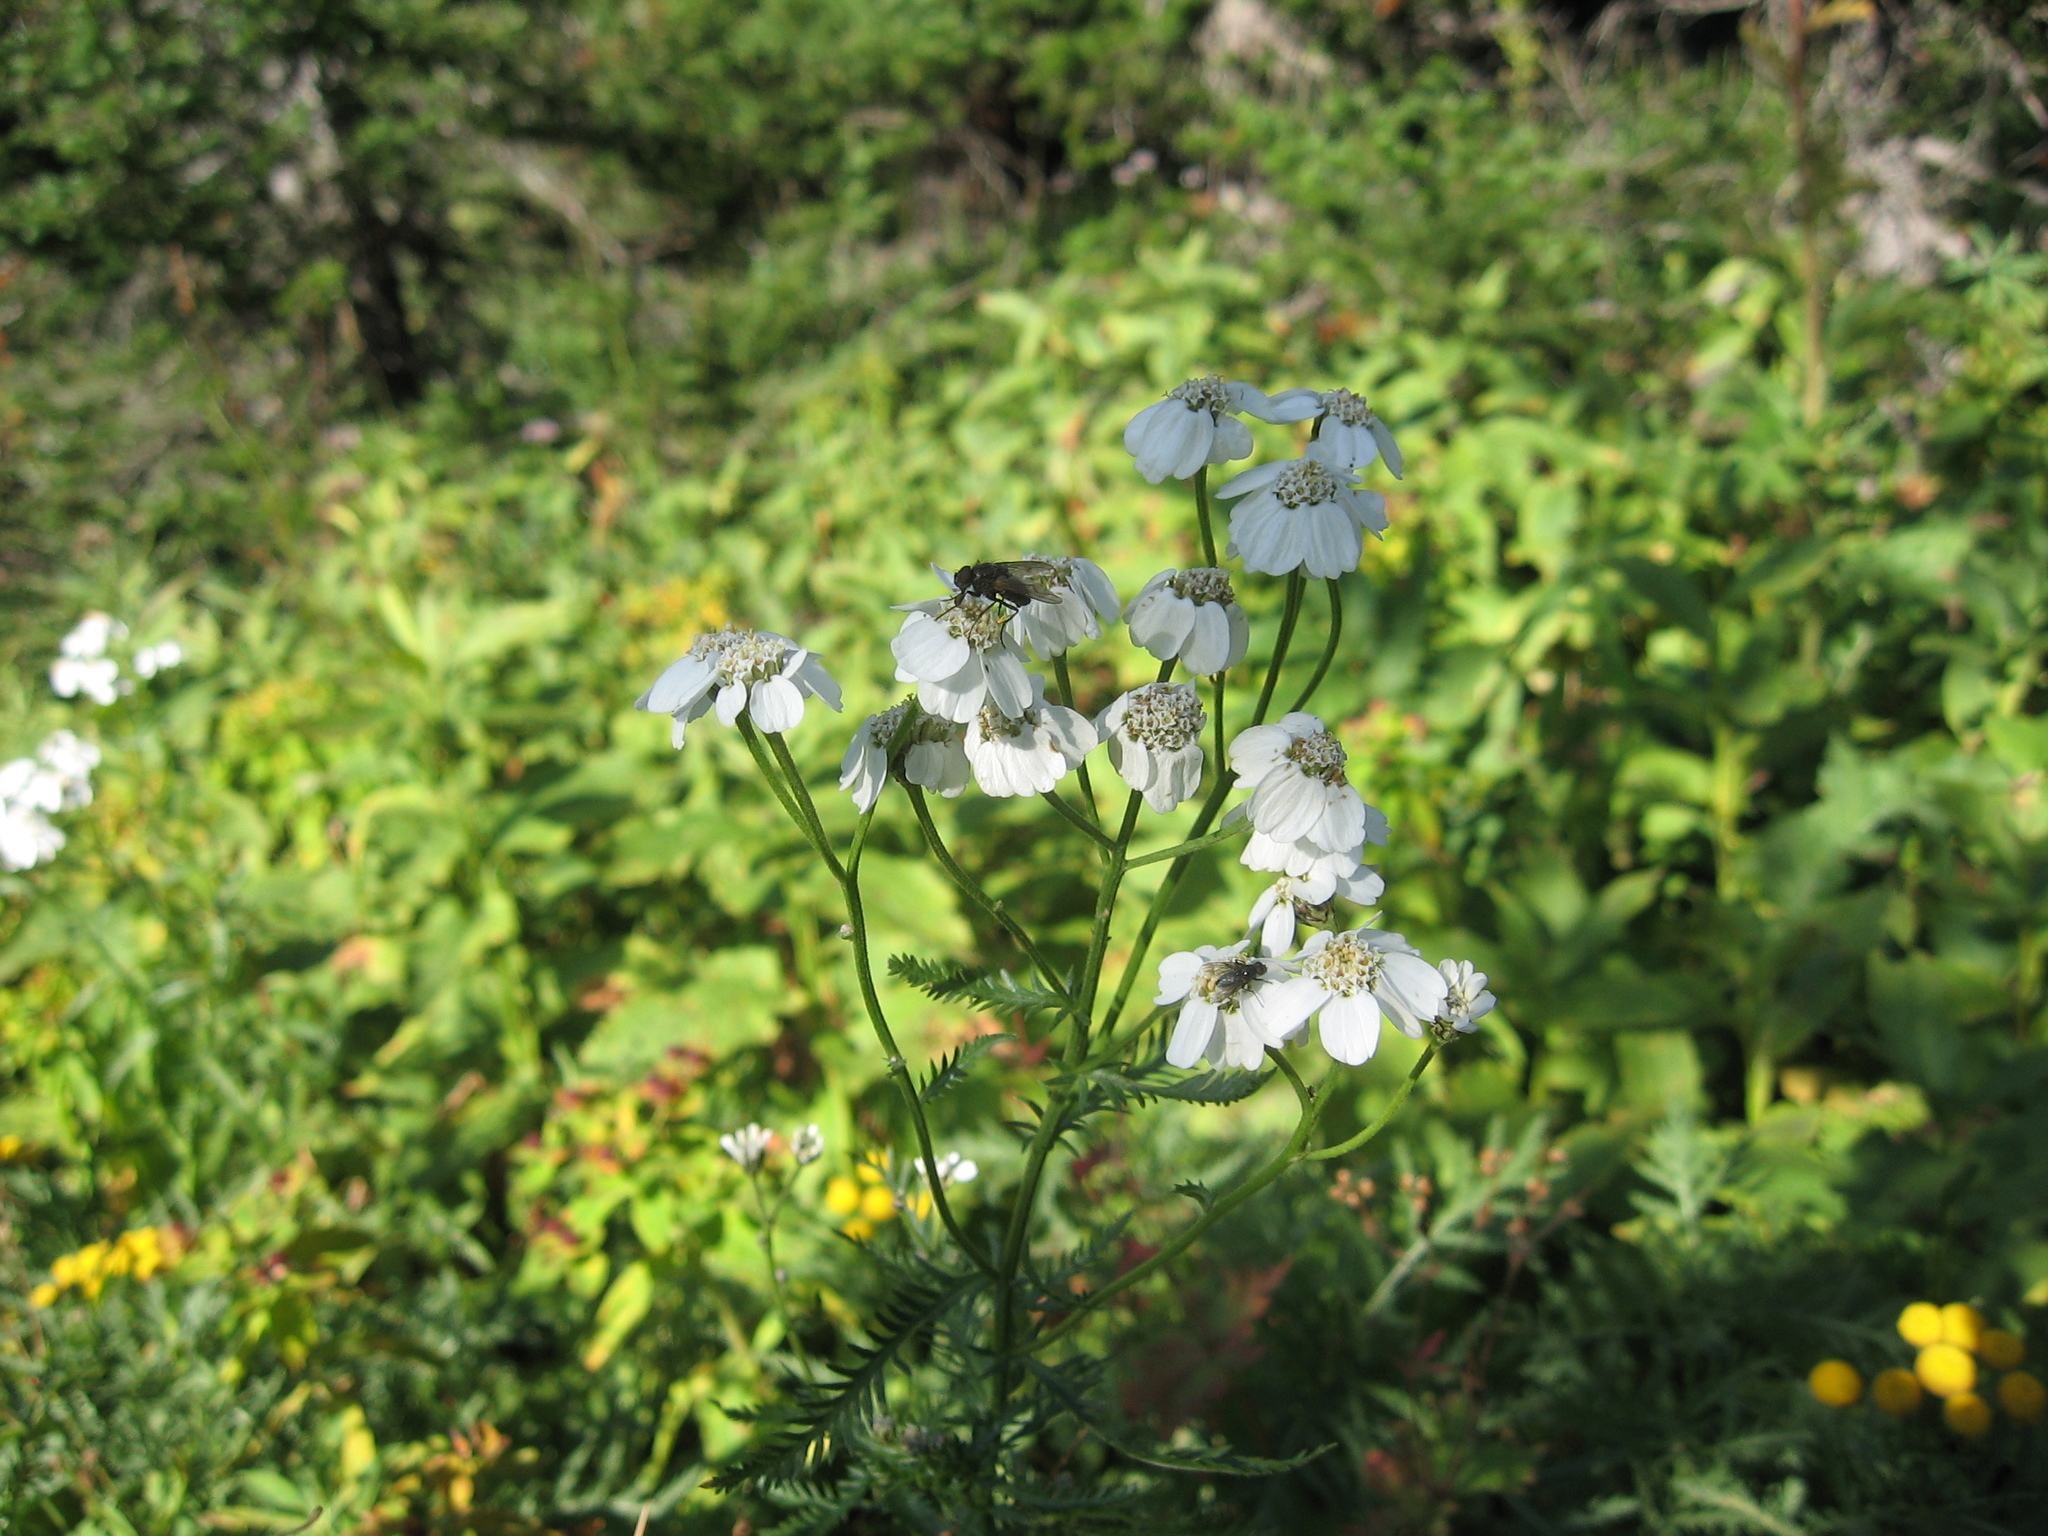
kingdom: Plantae
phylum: Tracheophyta
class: Magnoliopsida
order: Asterales
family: Asteraceae
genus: Achillea
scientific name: Achillea impatiens
